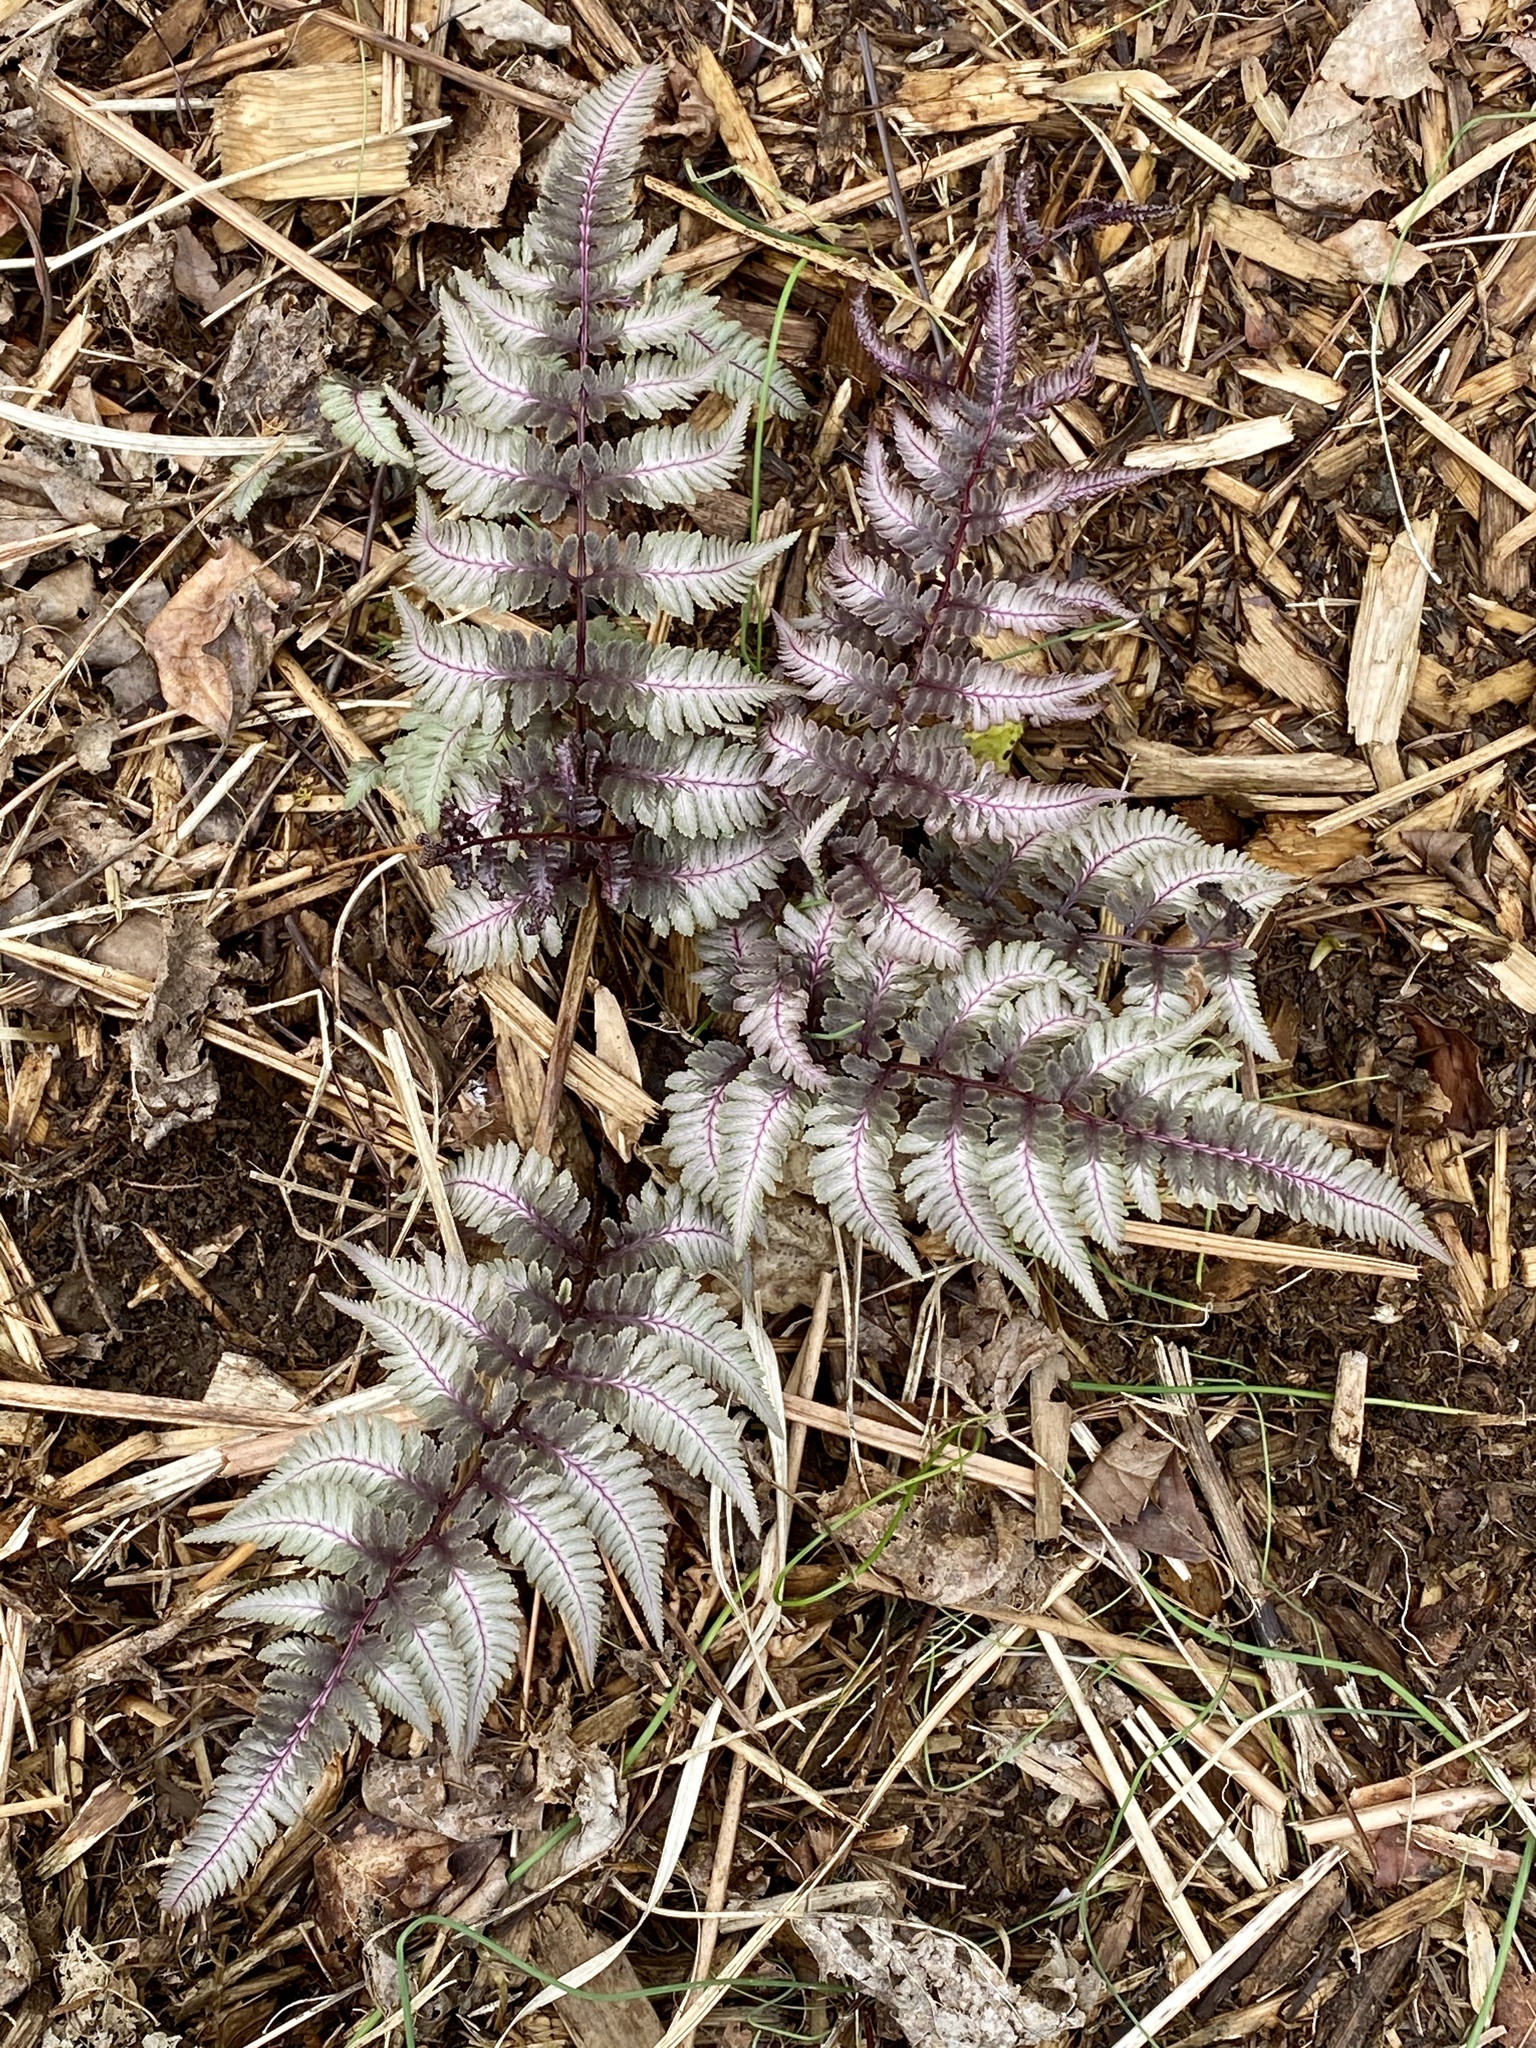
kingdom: Plantae
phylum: Tracheophyta
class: Polypodiopsida
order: Polypodiales
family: Athyriaceae
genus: Anisocampium
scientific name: Anisocampium niponicum
